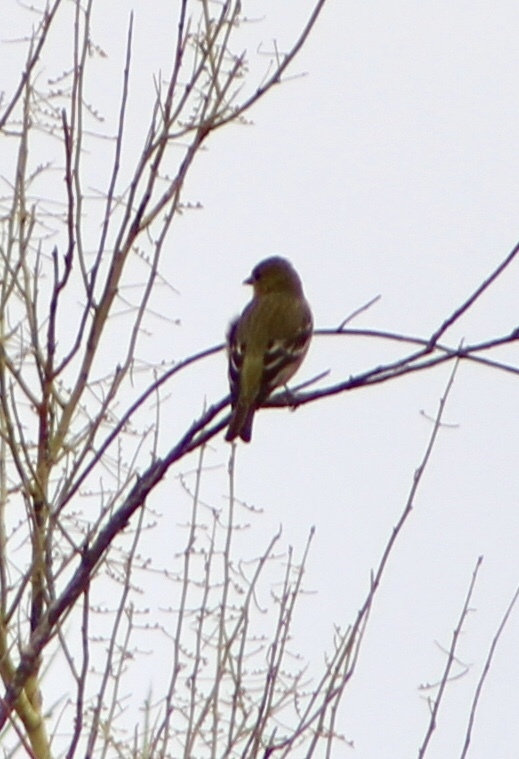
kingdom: Animalia
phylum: Chordata
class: Aves
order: Passeriformes
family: Fringillidae
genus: Spinus
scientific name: Spinus psaltria
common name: Lesser goldfinch
